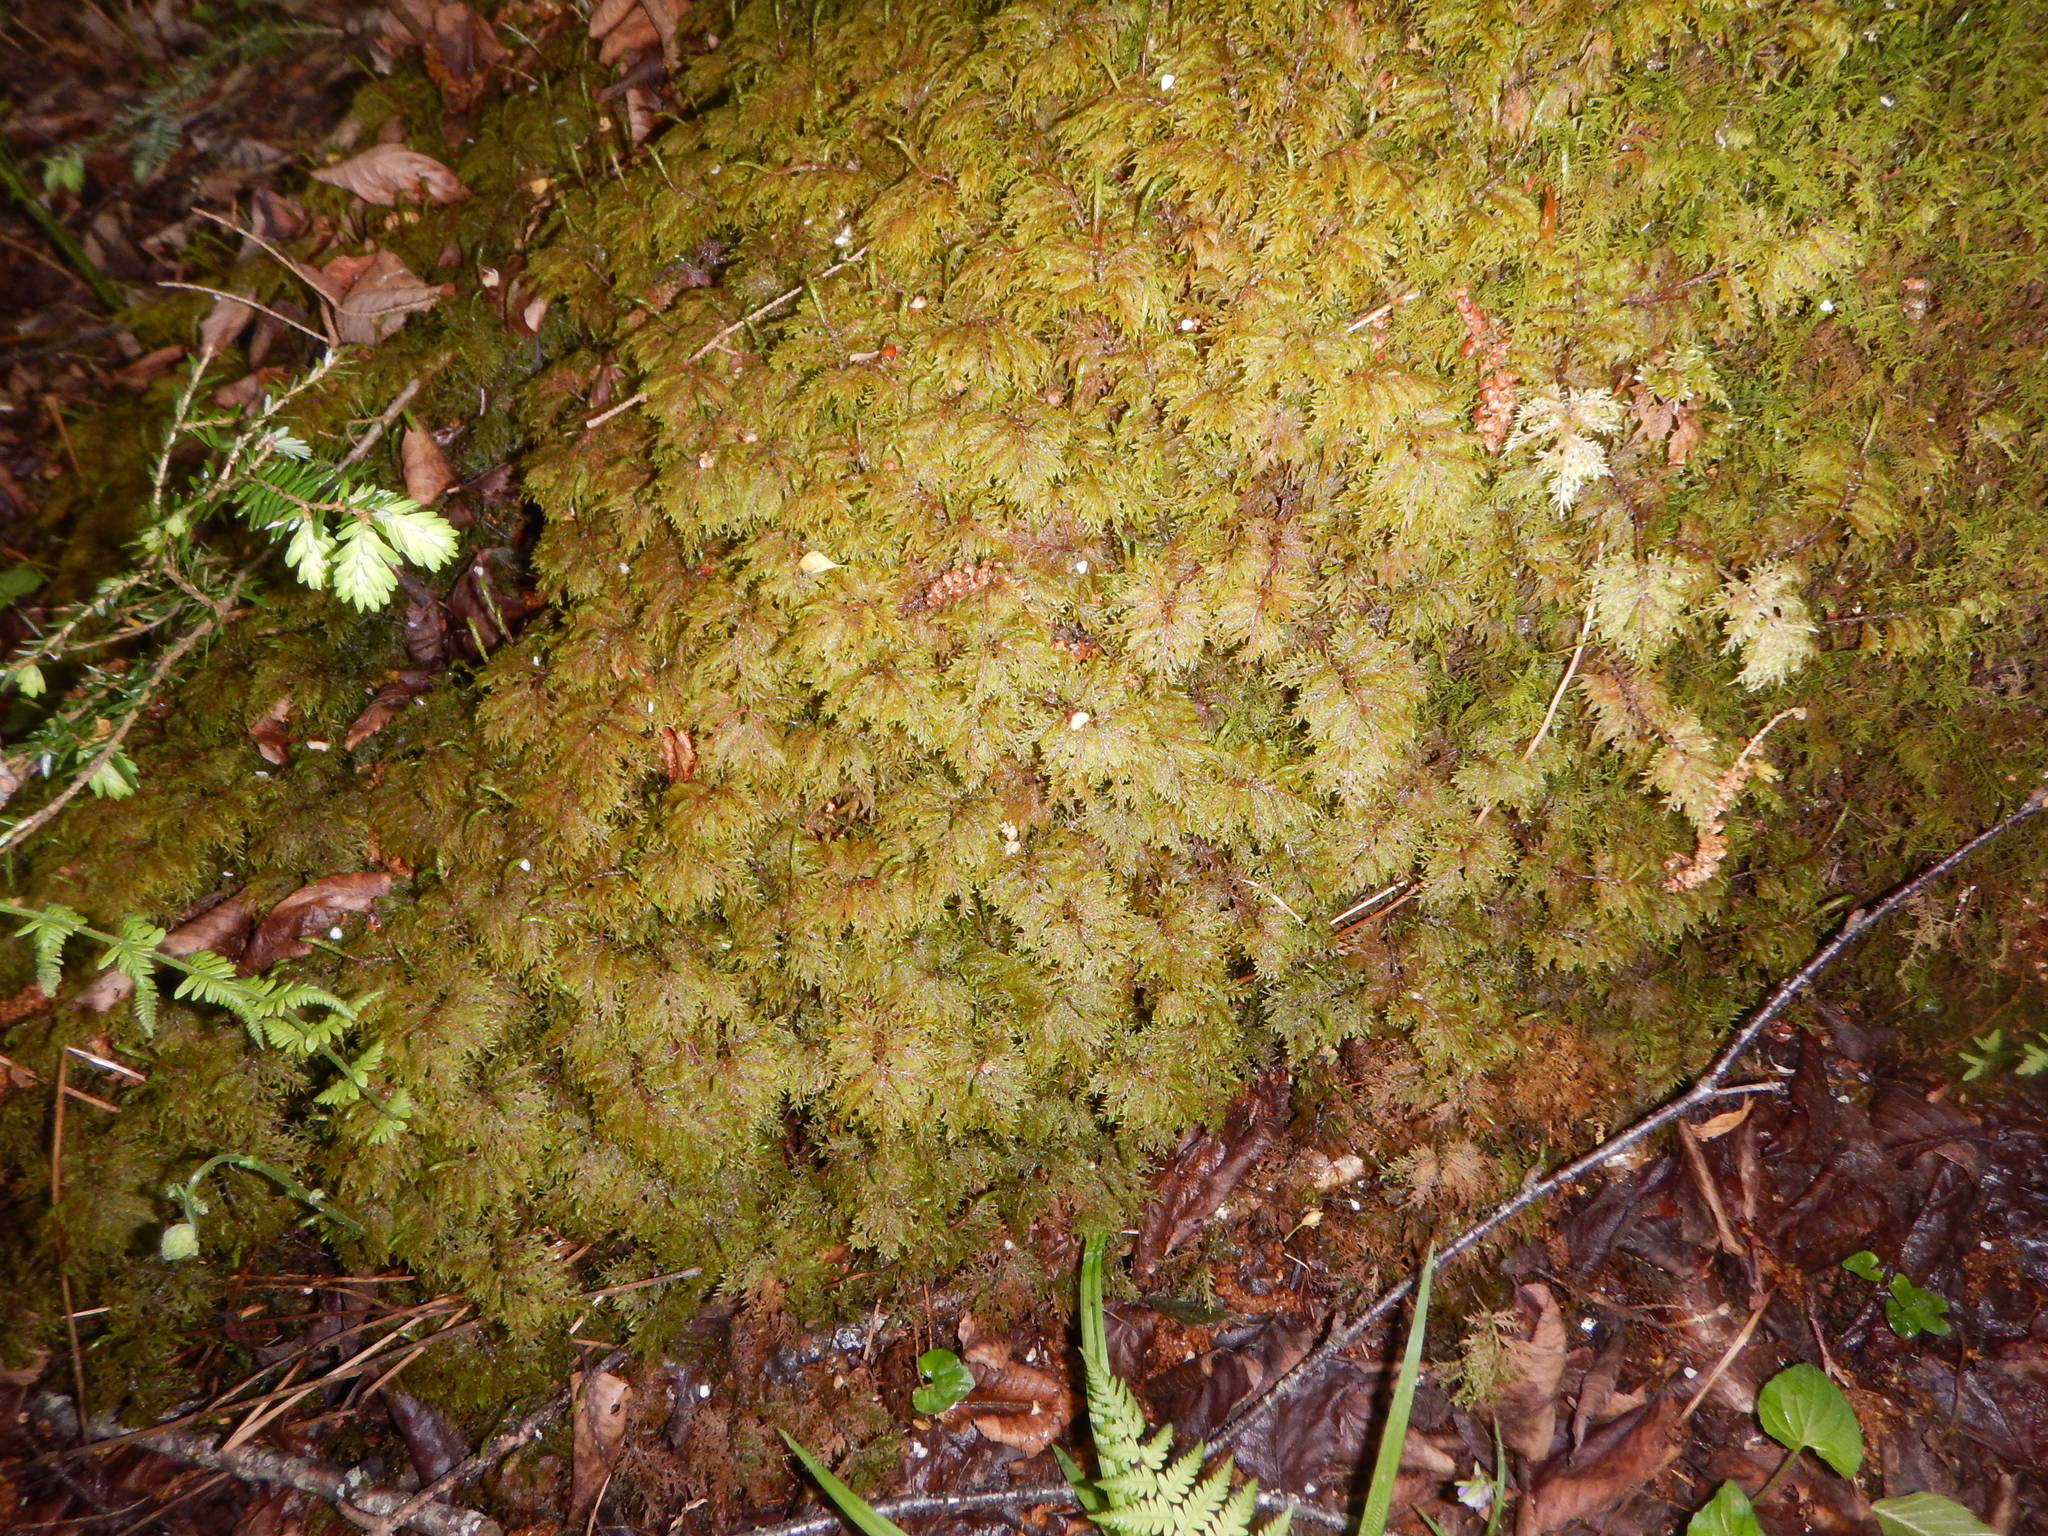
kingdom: Plantae
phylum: Bryophyta
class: Bryopsida
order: Hypnales
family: Hylocomiaceae
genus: Hylocomium
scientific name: Hylocomium splendens
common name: Stairstep moss
